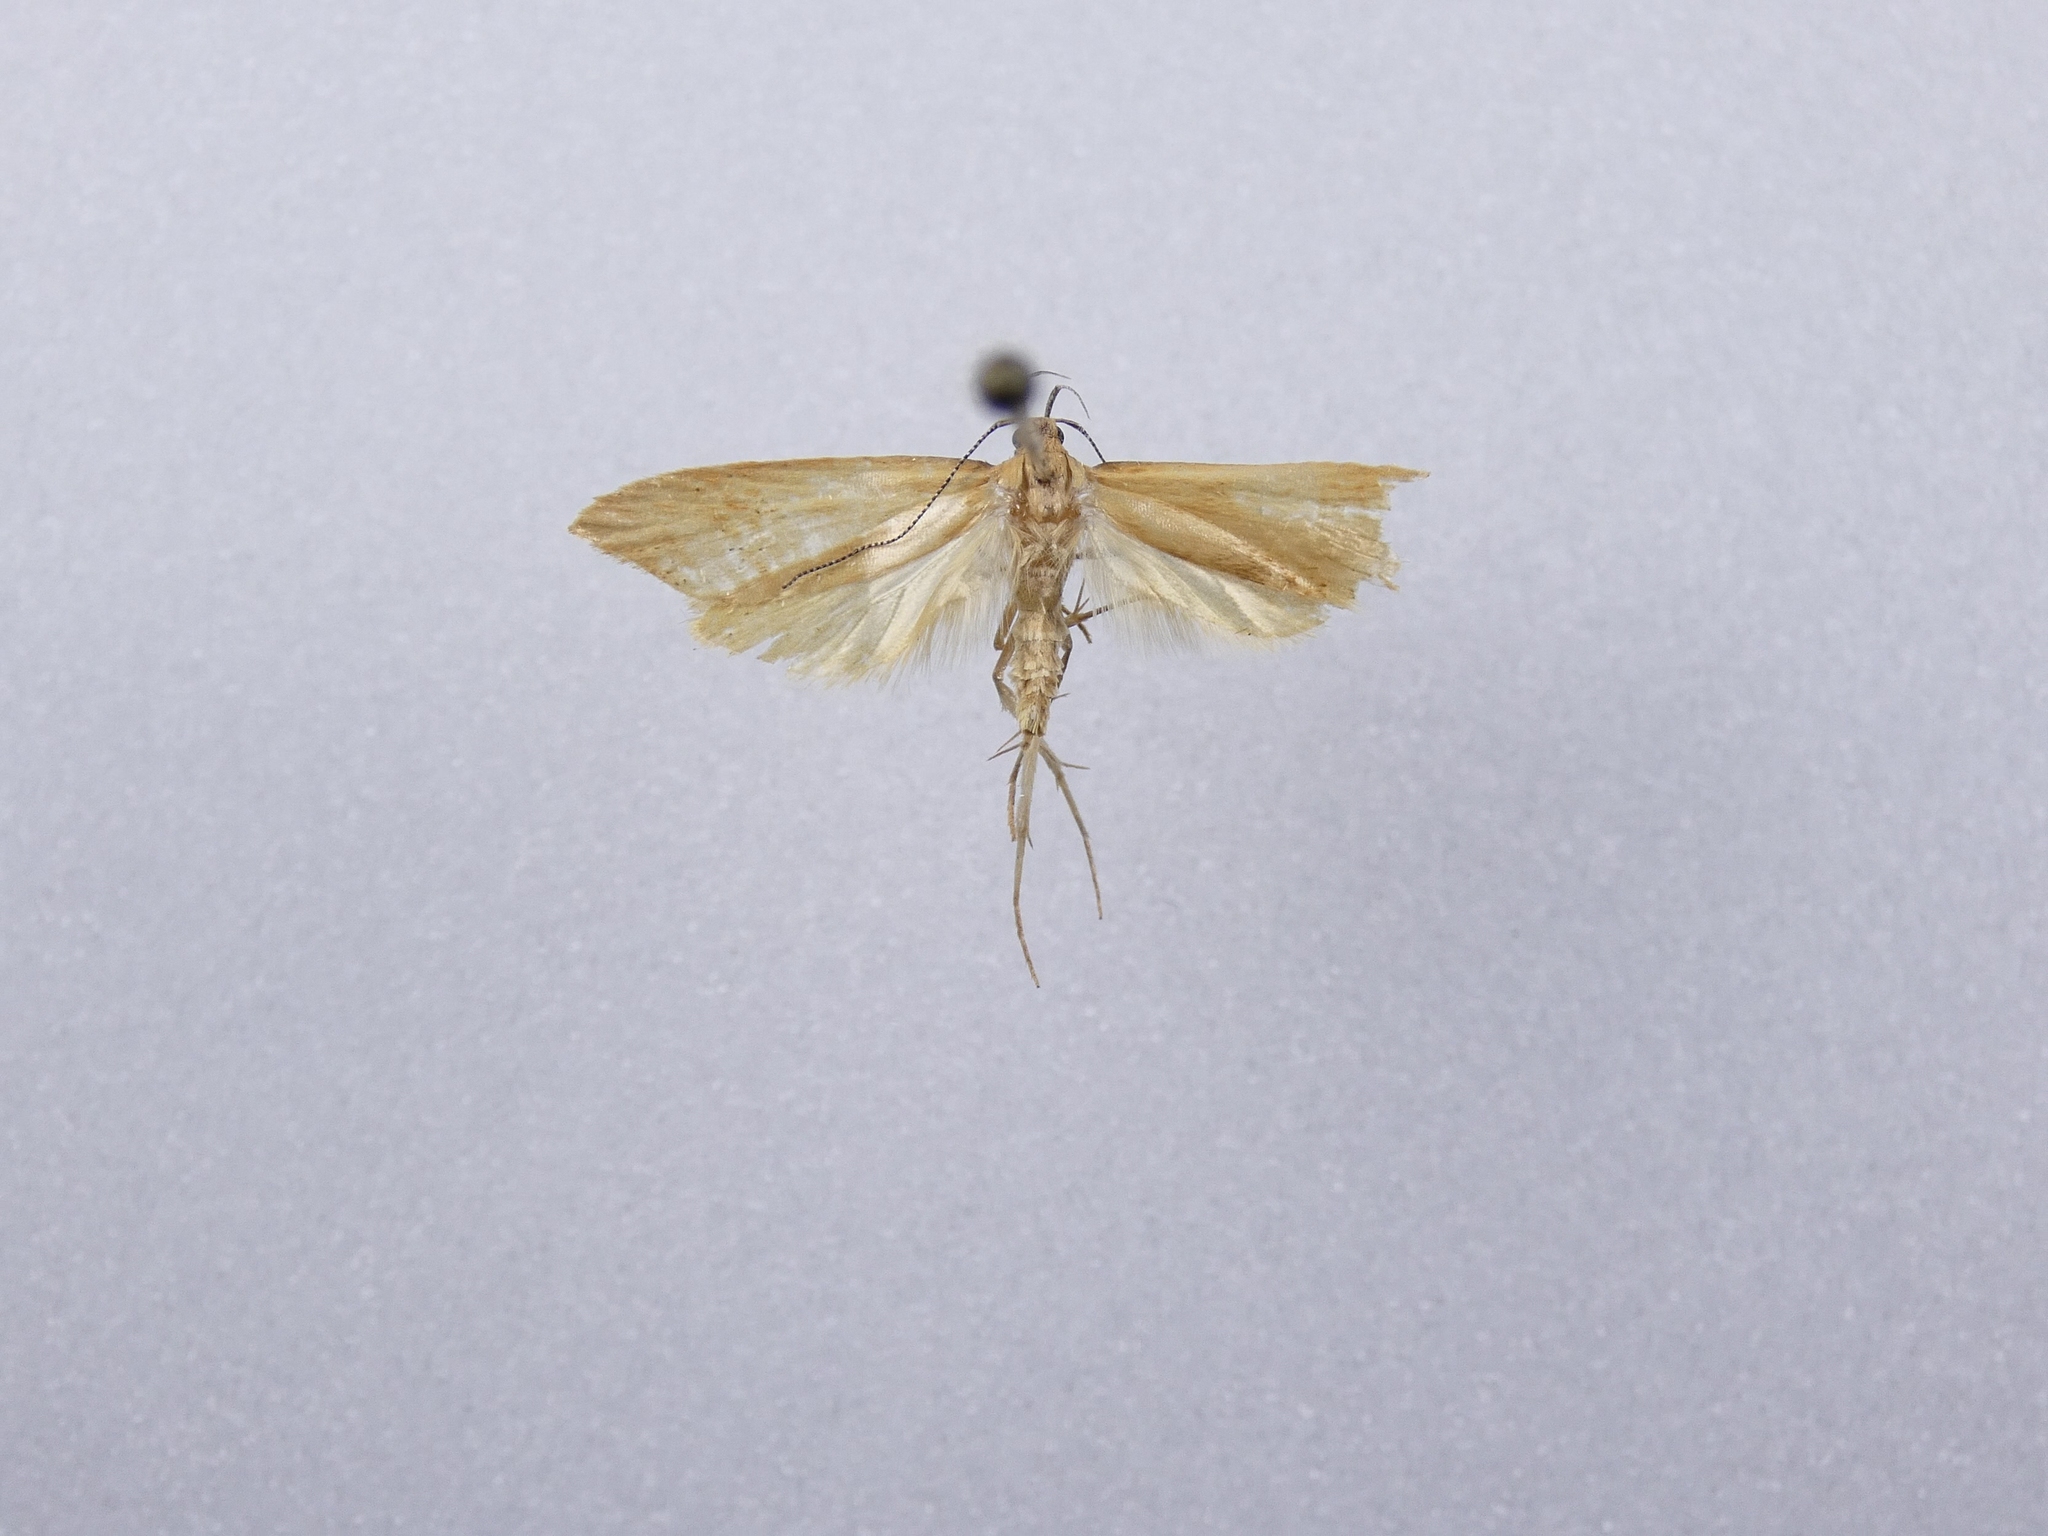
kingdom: Animalia
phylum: Arthropoda
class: Insecta
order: Lepidoptera
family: Oecophoridae
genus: Gymnobathra
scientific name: Gymnobathra hyetodes
